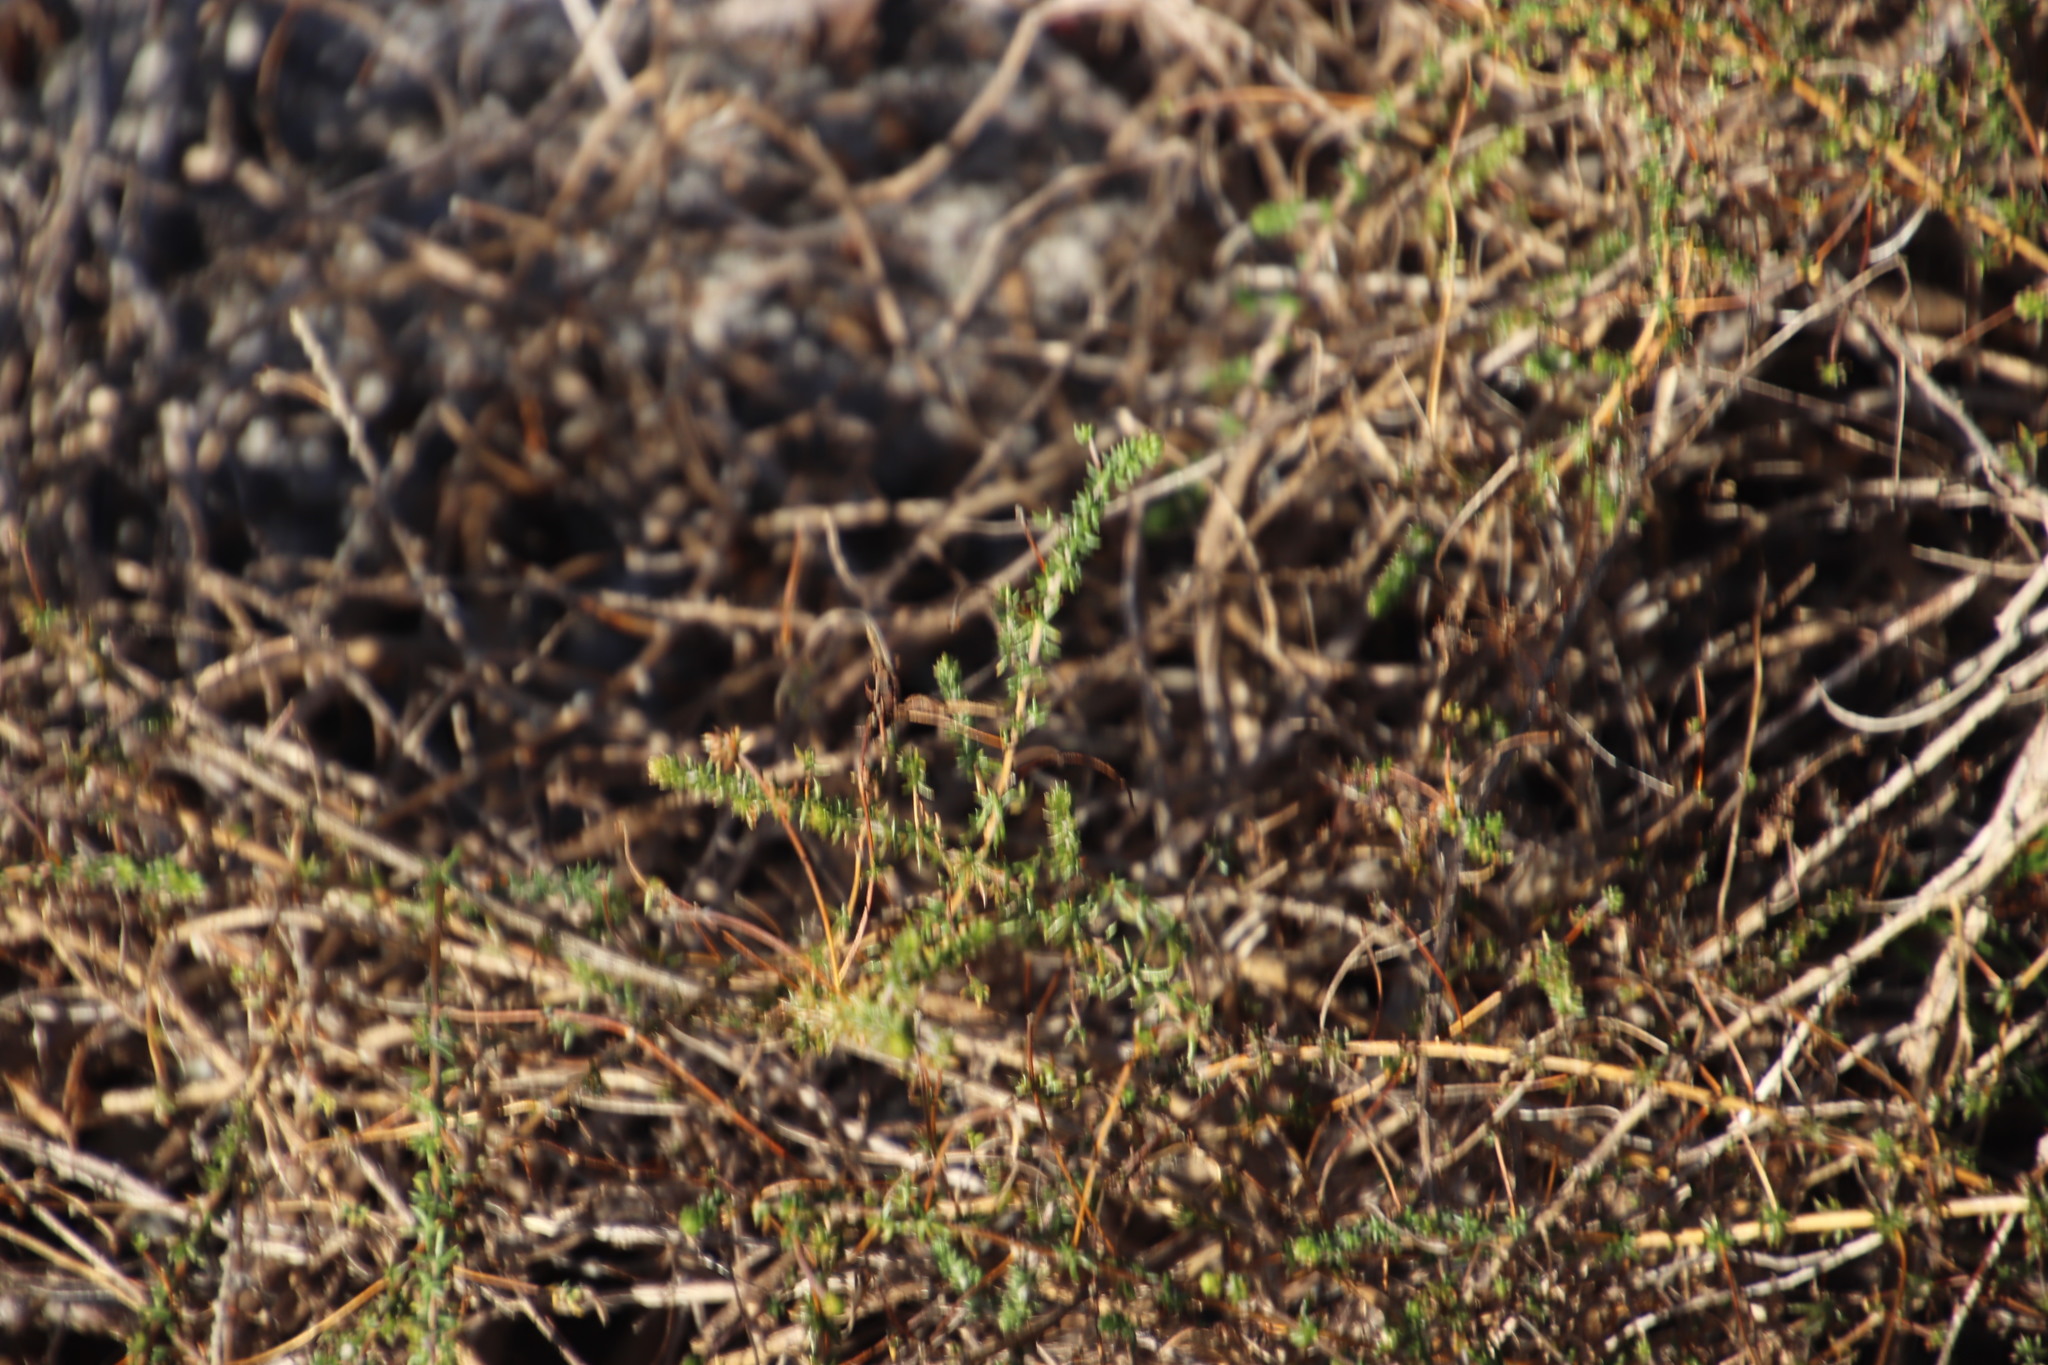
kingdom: Plantae
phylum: Tracheophyta
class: Magnoliopsida
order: Fabales
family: Fabaceae
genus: Aspalathus
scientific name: Aspalathus retroflexa
